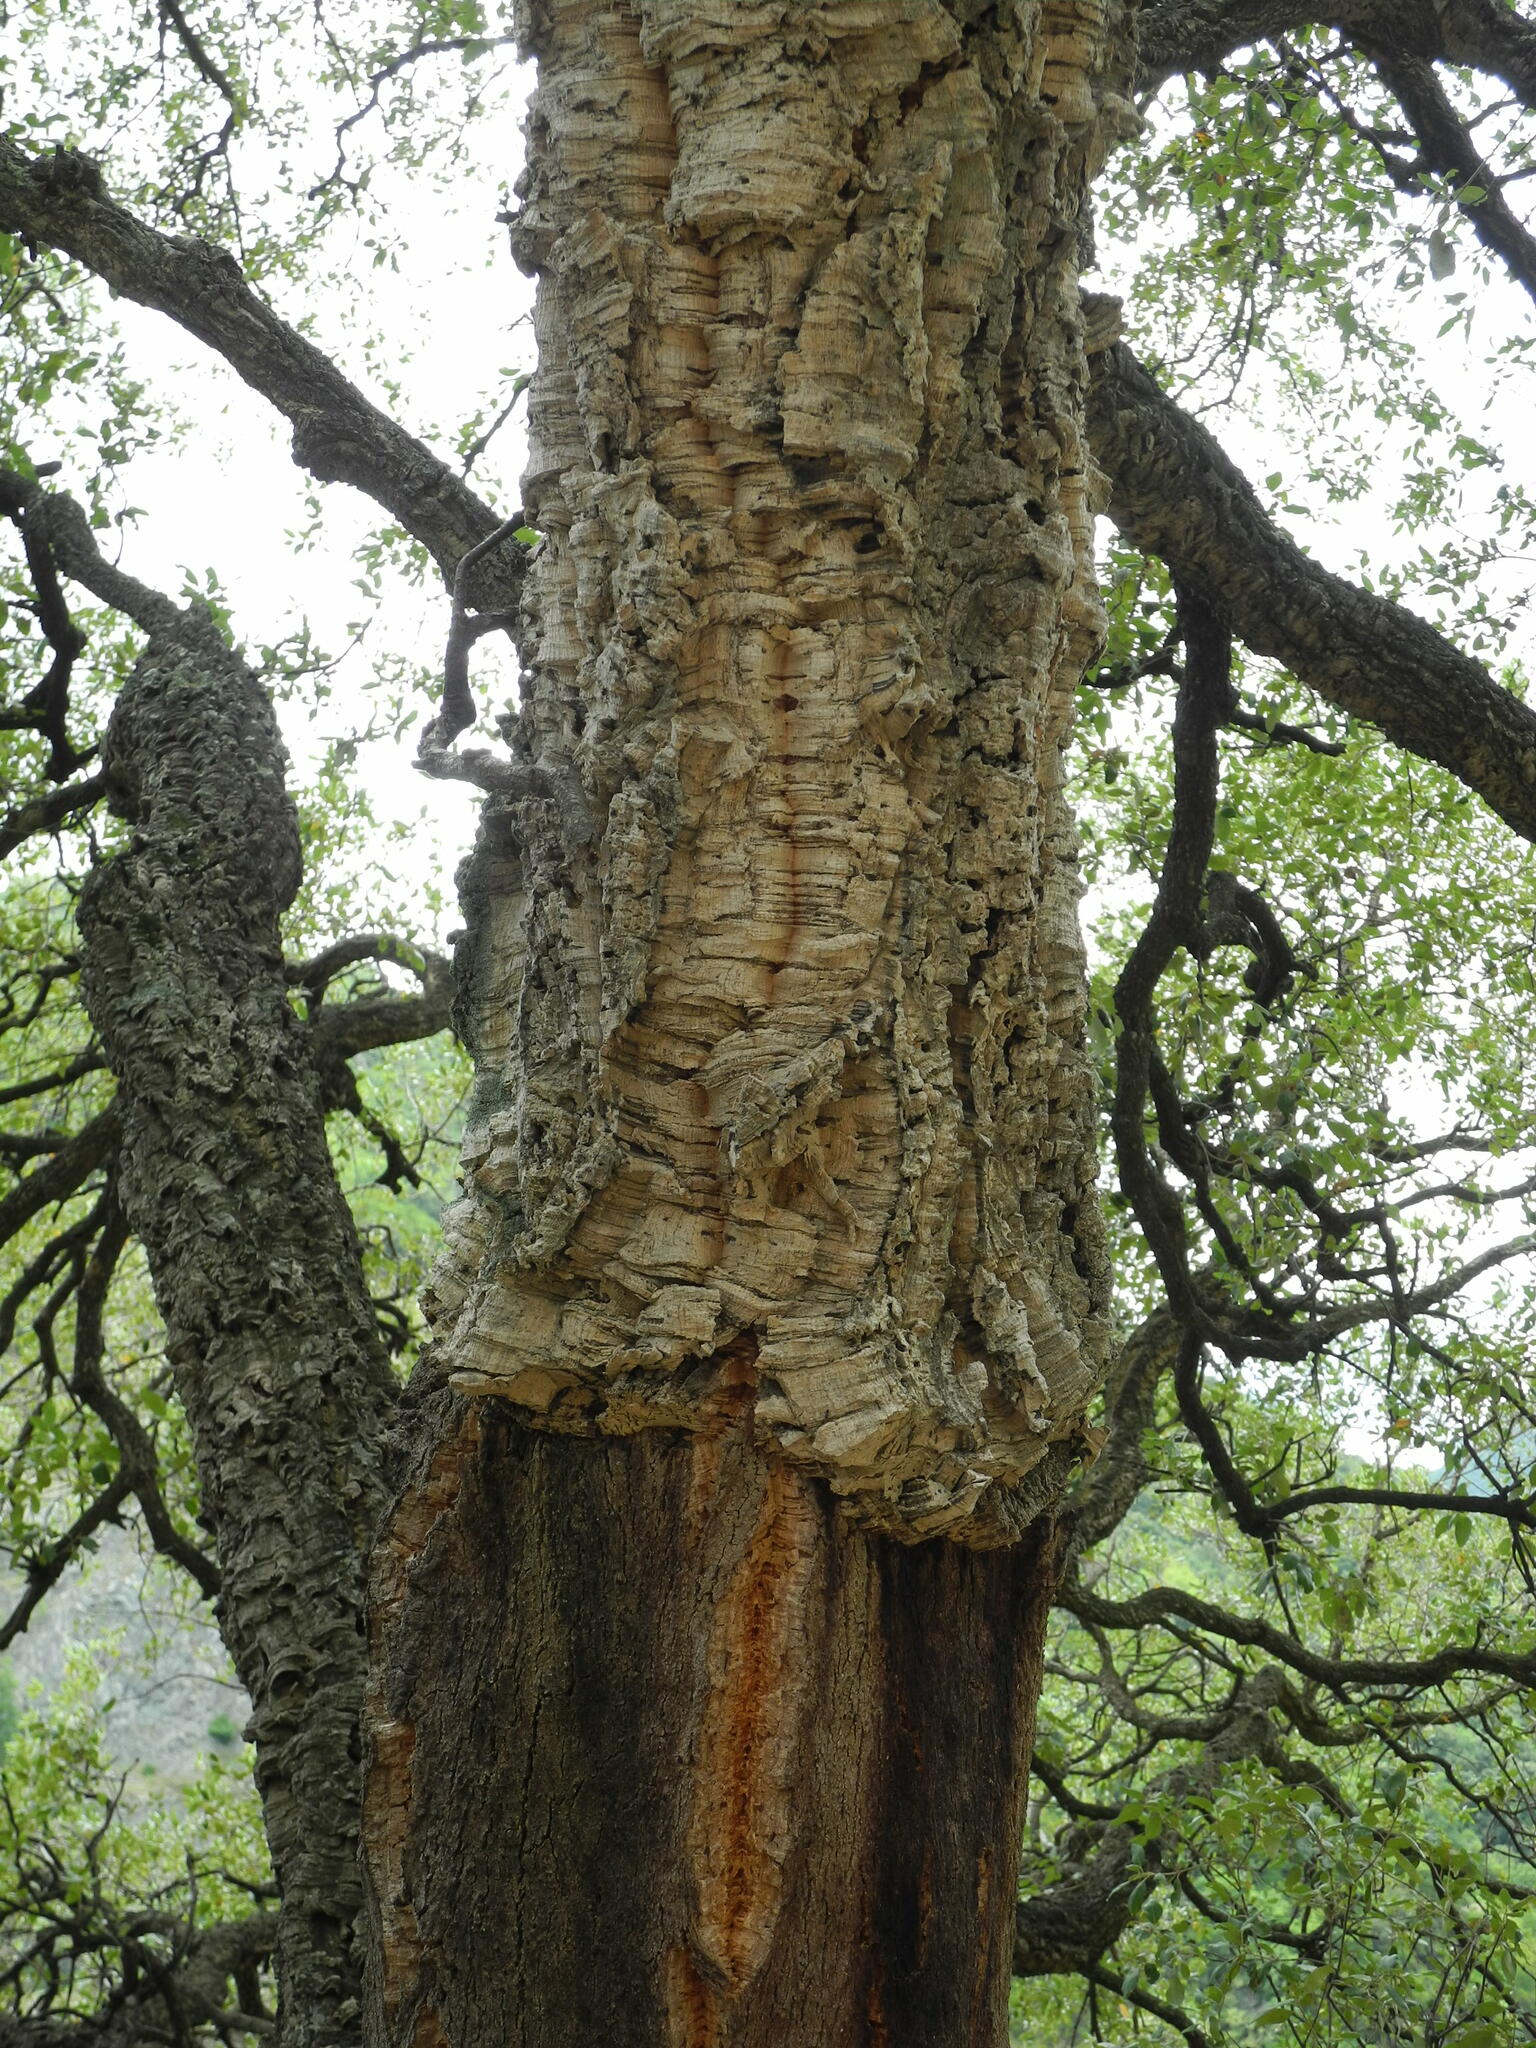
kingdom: Plantae
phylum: Tracheophyta
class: Magnoliopsida
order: Fagales
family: Fagaceae
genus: Quercus
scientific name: Quercus suber
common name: Cork oak
